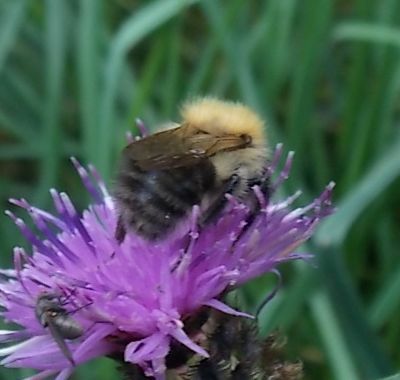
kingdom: Animalia
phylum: Arthropoda
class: Insecta
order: Hymenoptera
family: Apidae
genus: Bombus
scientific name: Bombus pascuorum
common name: Common carder bee
